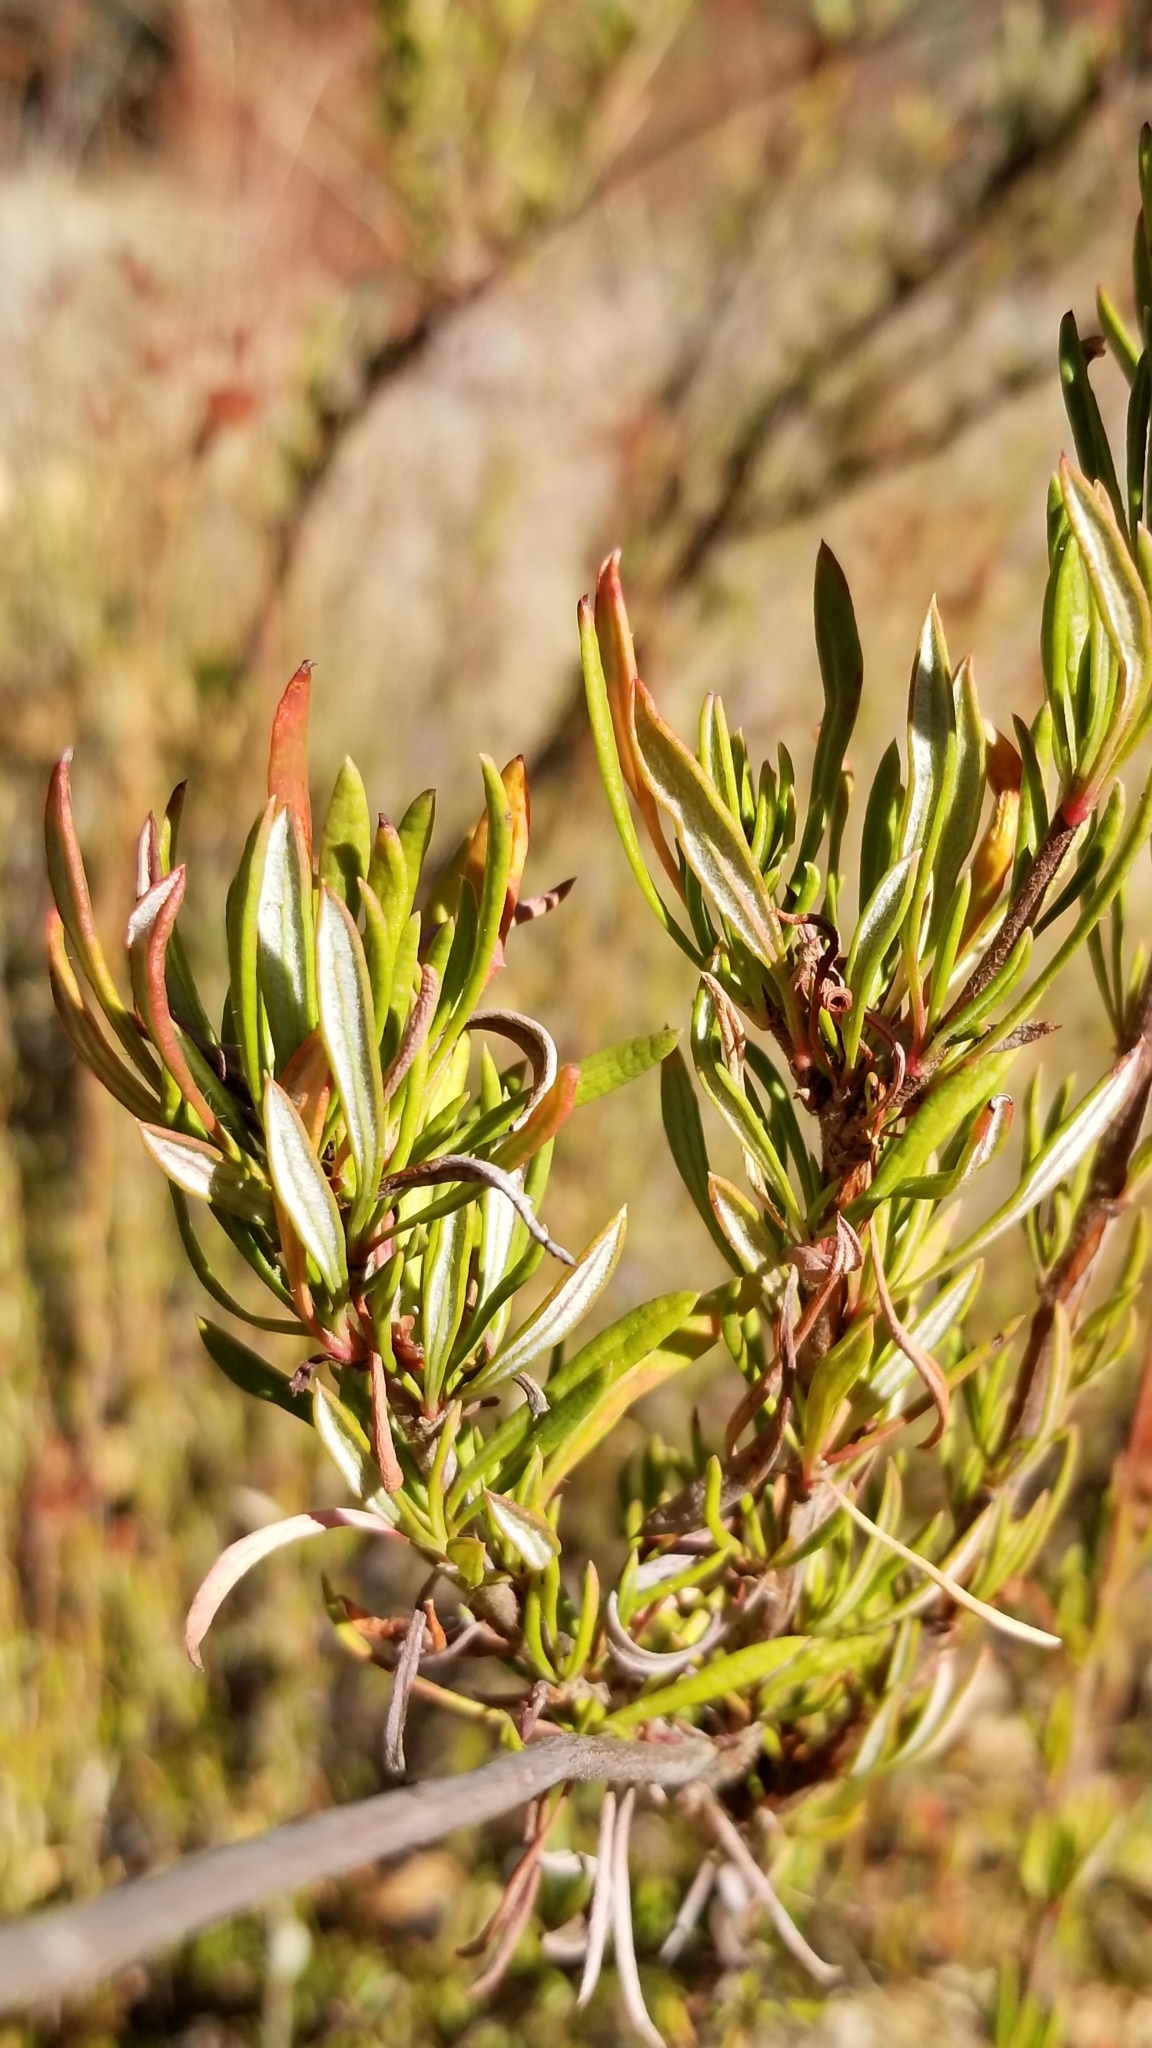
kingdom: Plantae
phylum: Tracheophyta
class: Magnoliopsida
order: Caryophyllales
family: Polygonaceae
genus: Eriogonum
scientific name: Eriogonum fasciculatum
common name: California wild buckwheat
